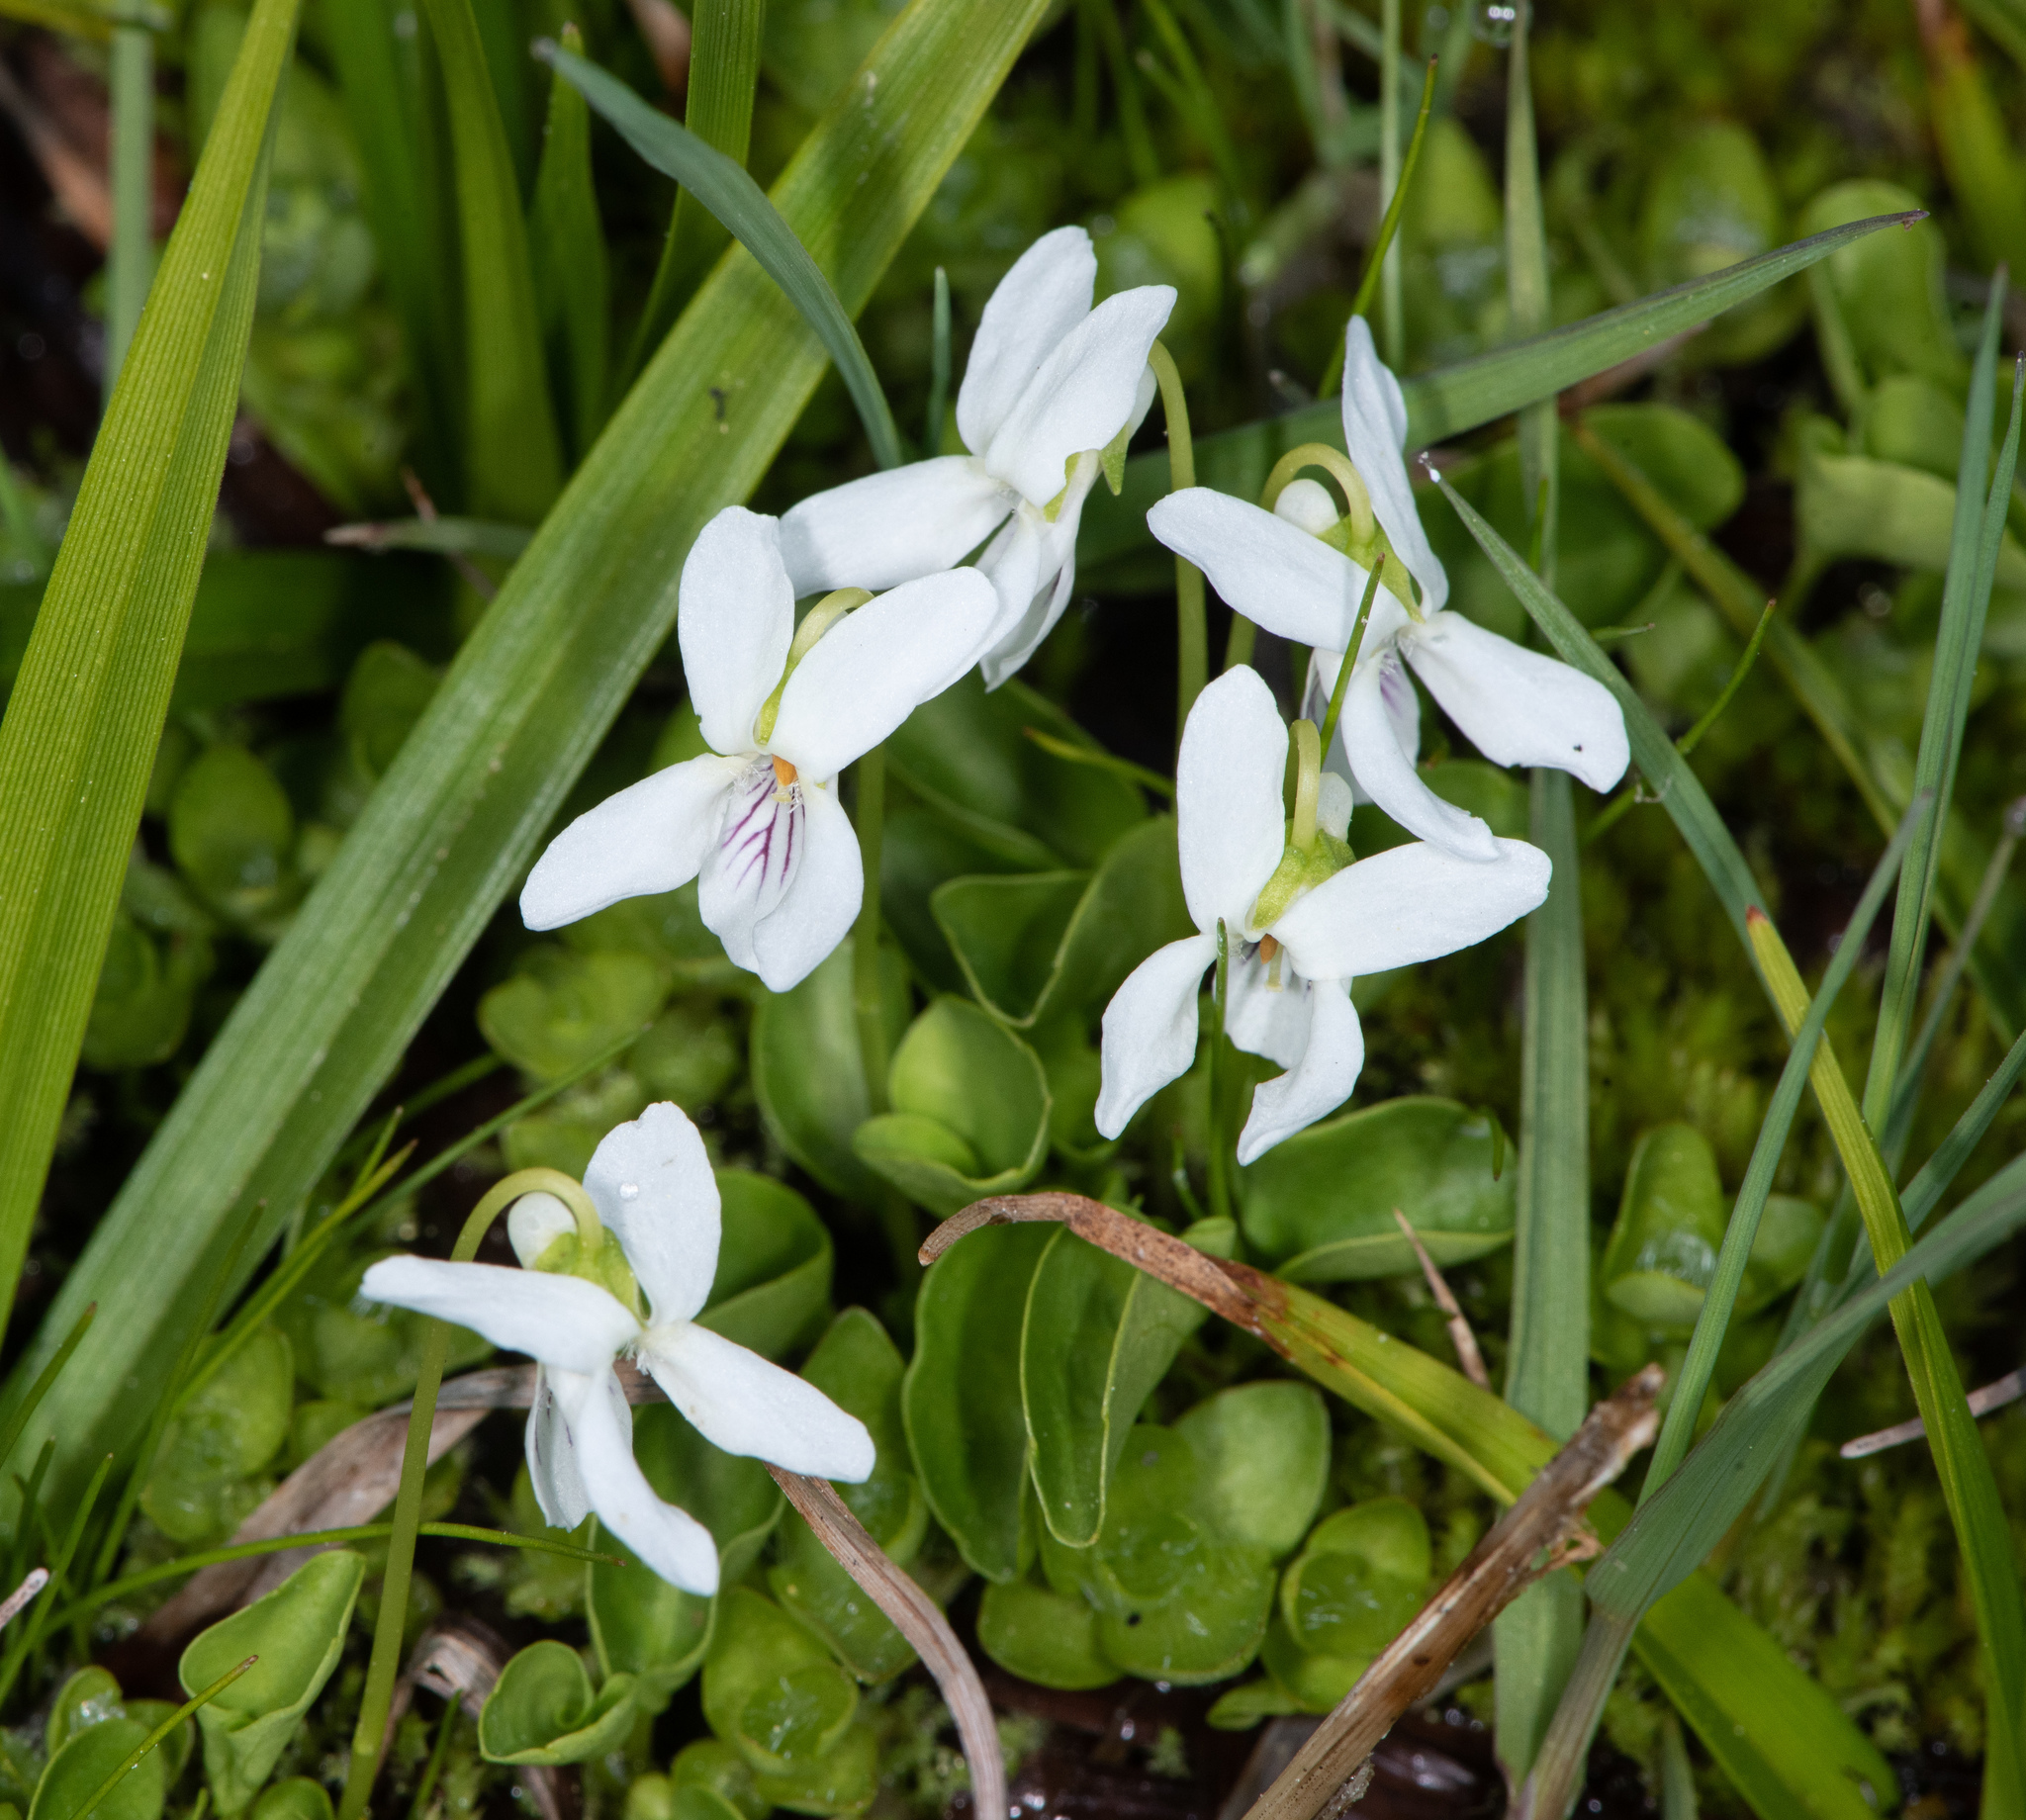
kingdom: Plantae
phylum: Tracheophyta
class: Magnoliopsida
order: Malpighiales
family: Violaceae
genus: Viola
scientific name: Viola macloskeyi
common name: Macloskey's violet
